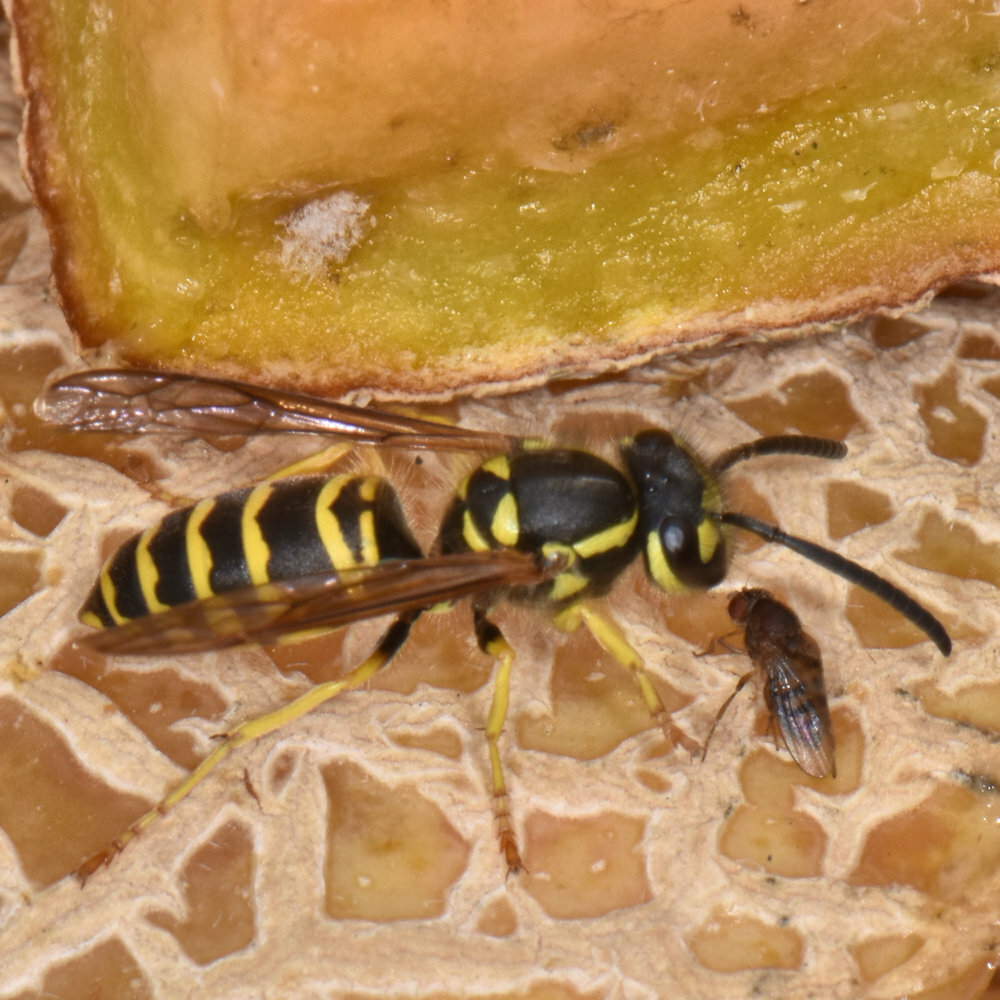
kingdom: Animalia
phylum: Arthropoda
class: Insecta
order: Hymenoptera
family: Vespidae
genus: Vespula
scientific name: Vespula maculifrons
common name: Eastern yellowjacket
